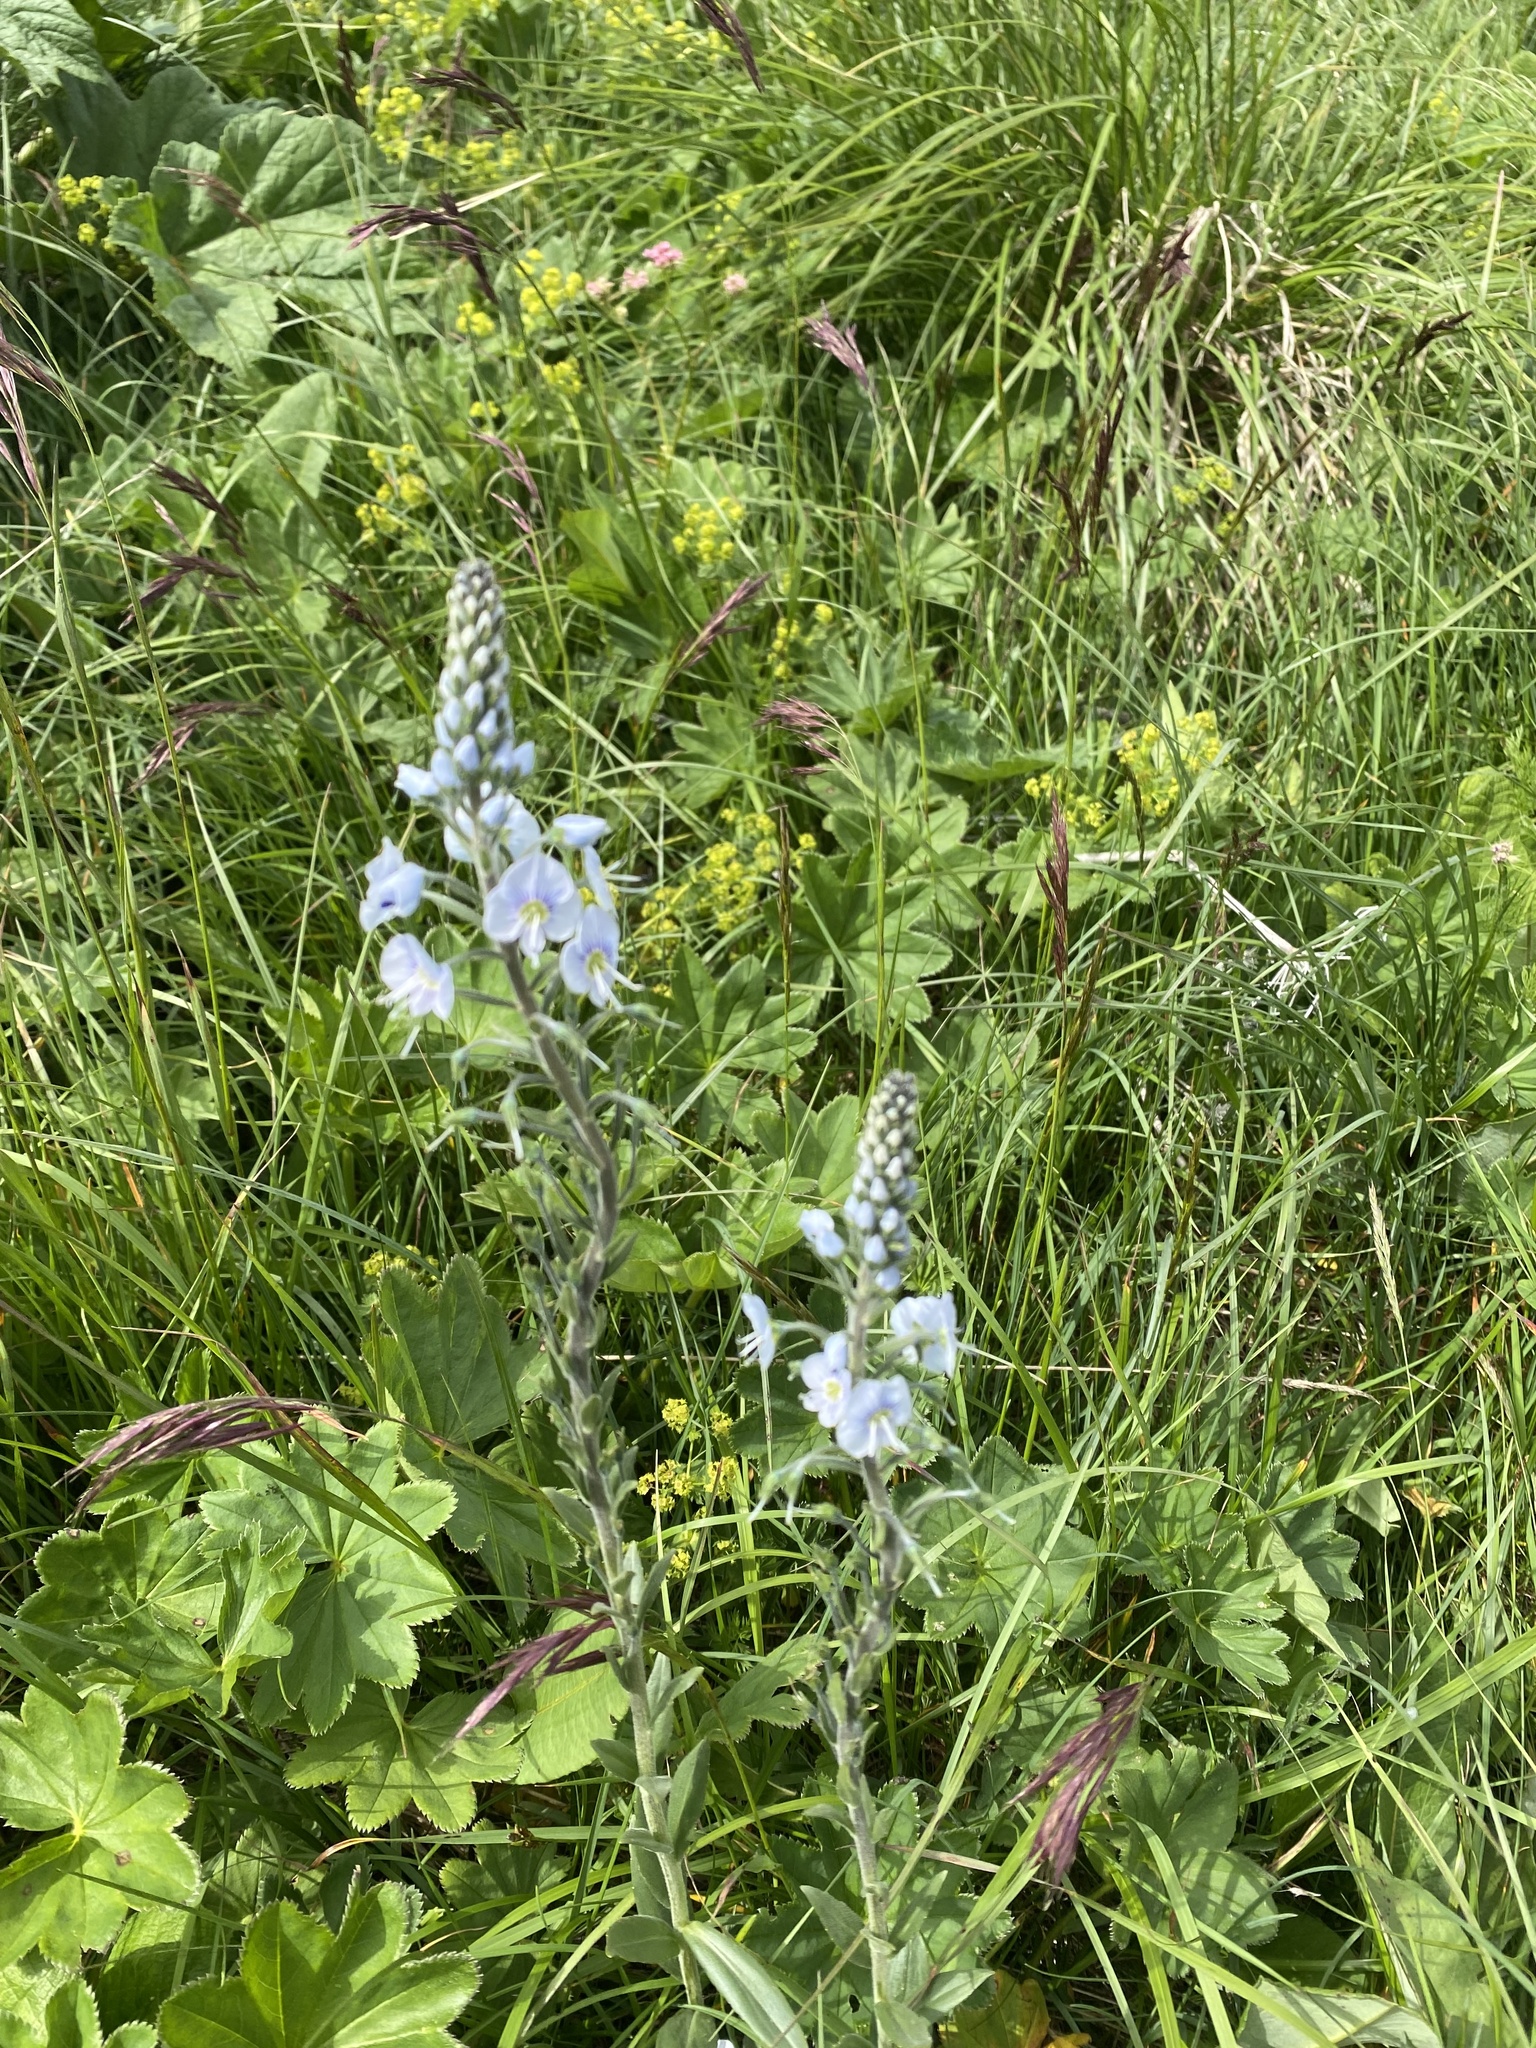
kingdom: Plantae
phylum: Tracheophyta
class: Magnoliopsida
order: Lamiales
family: Plantaginaceae
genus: Veronica
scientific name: Veronica gentianoides
